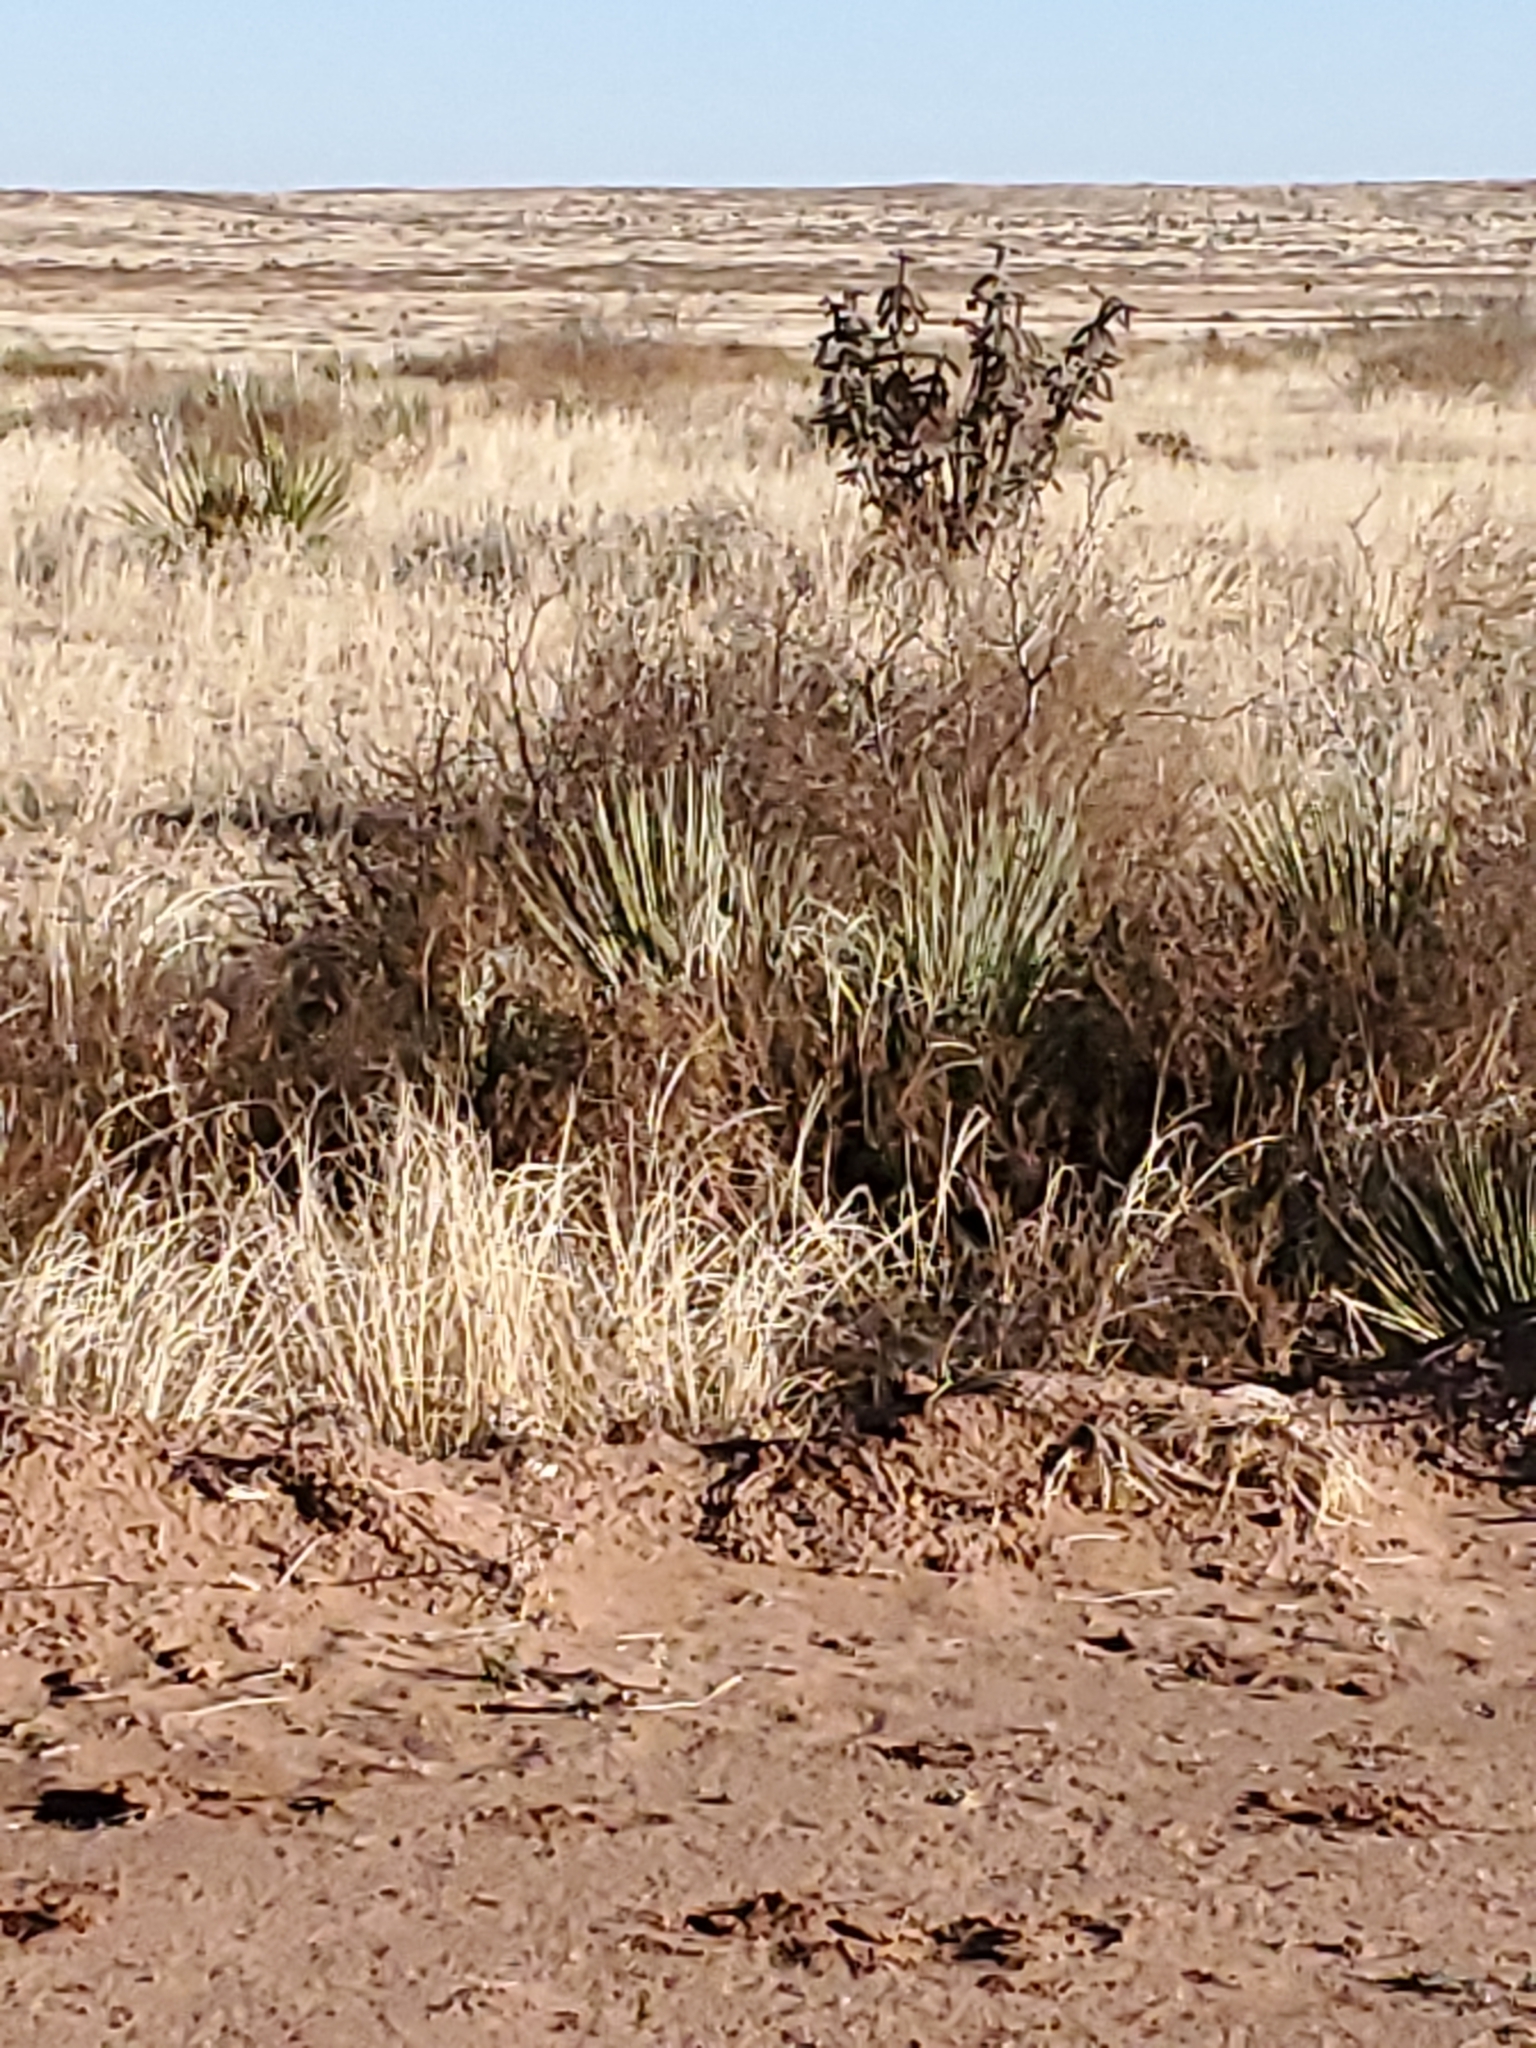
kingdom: Plantae
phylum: Tracheophyta
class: Magnoliopsida
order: Caryophyllales
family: Cactaceae
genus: Cylindropuntia
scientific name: Cylindropuntia imbricata
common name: Candelabrum cactus
